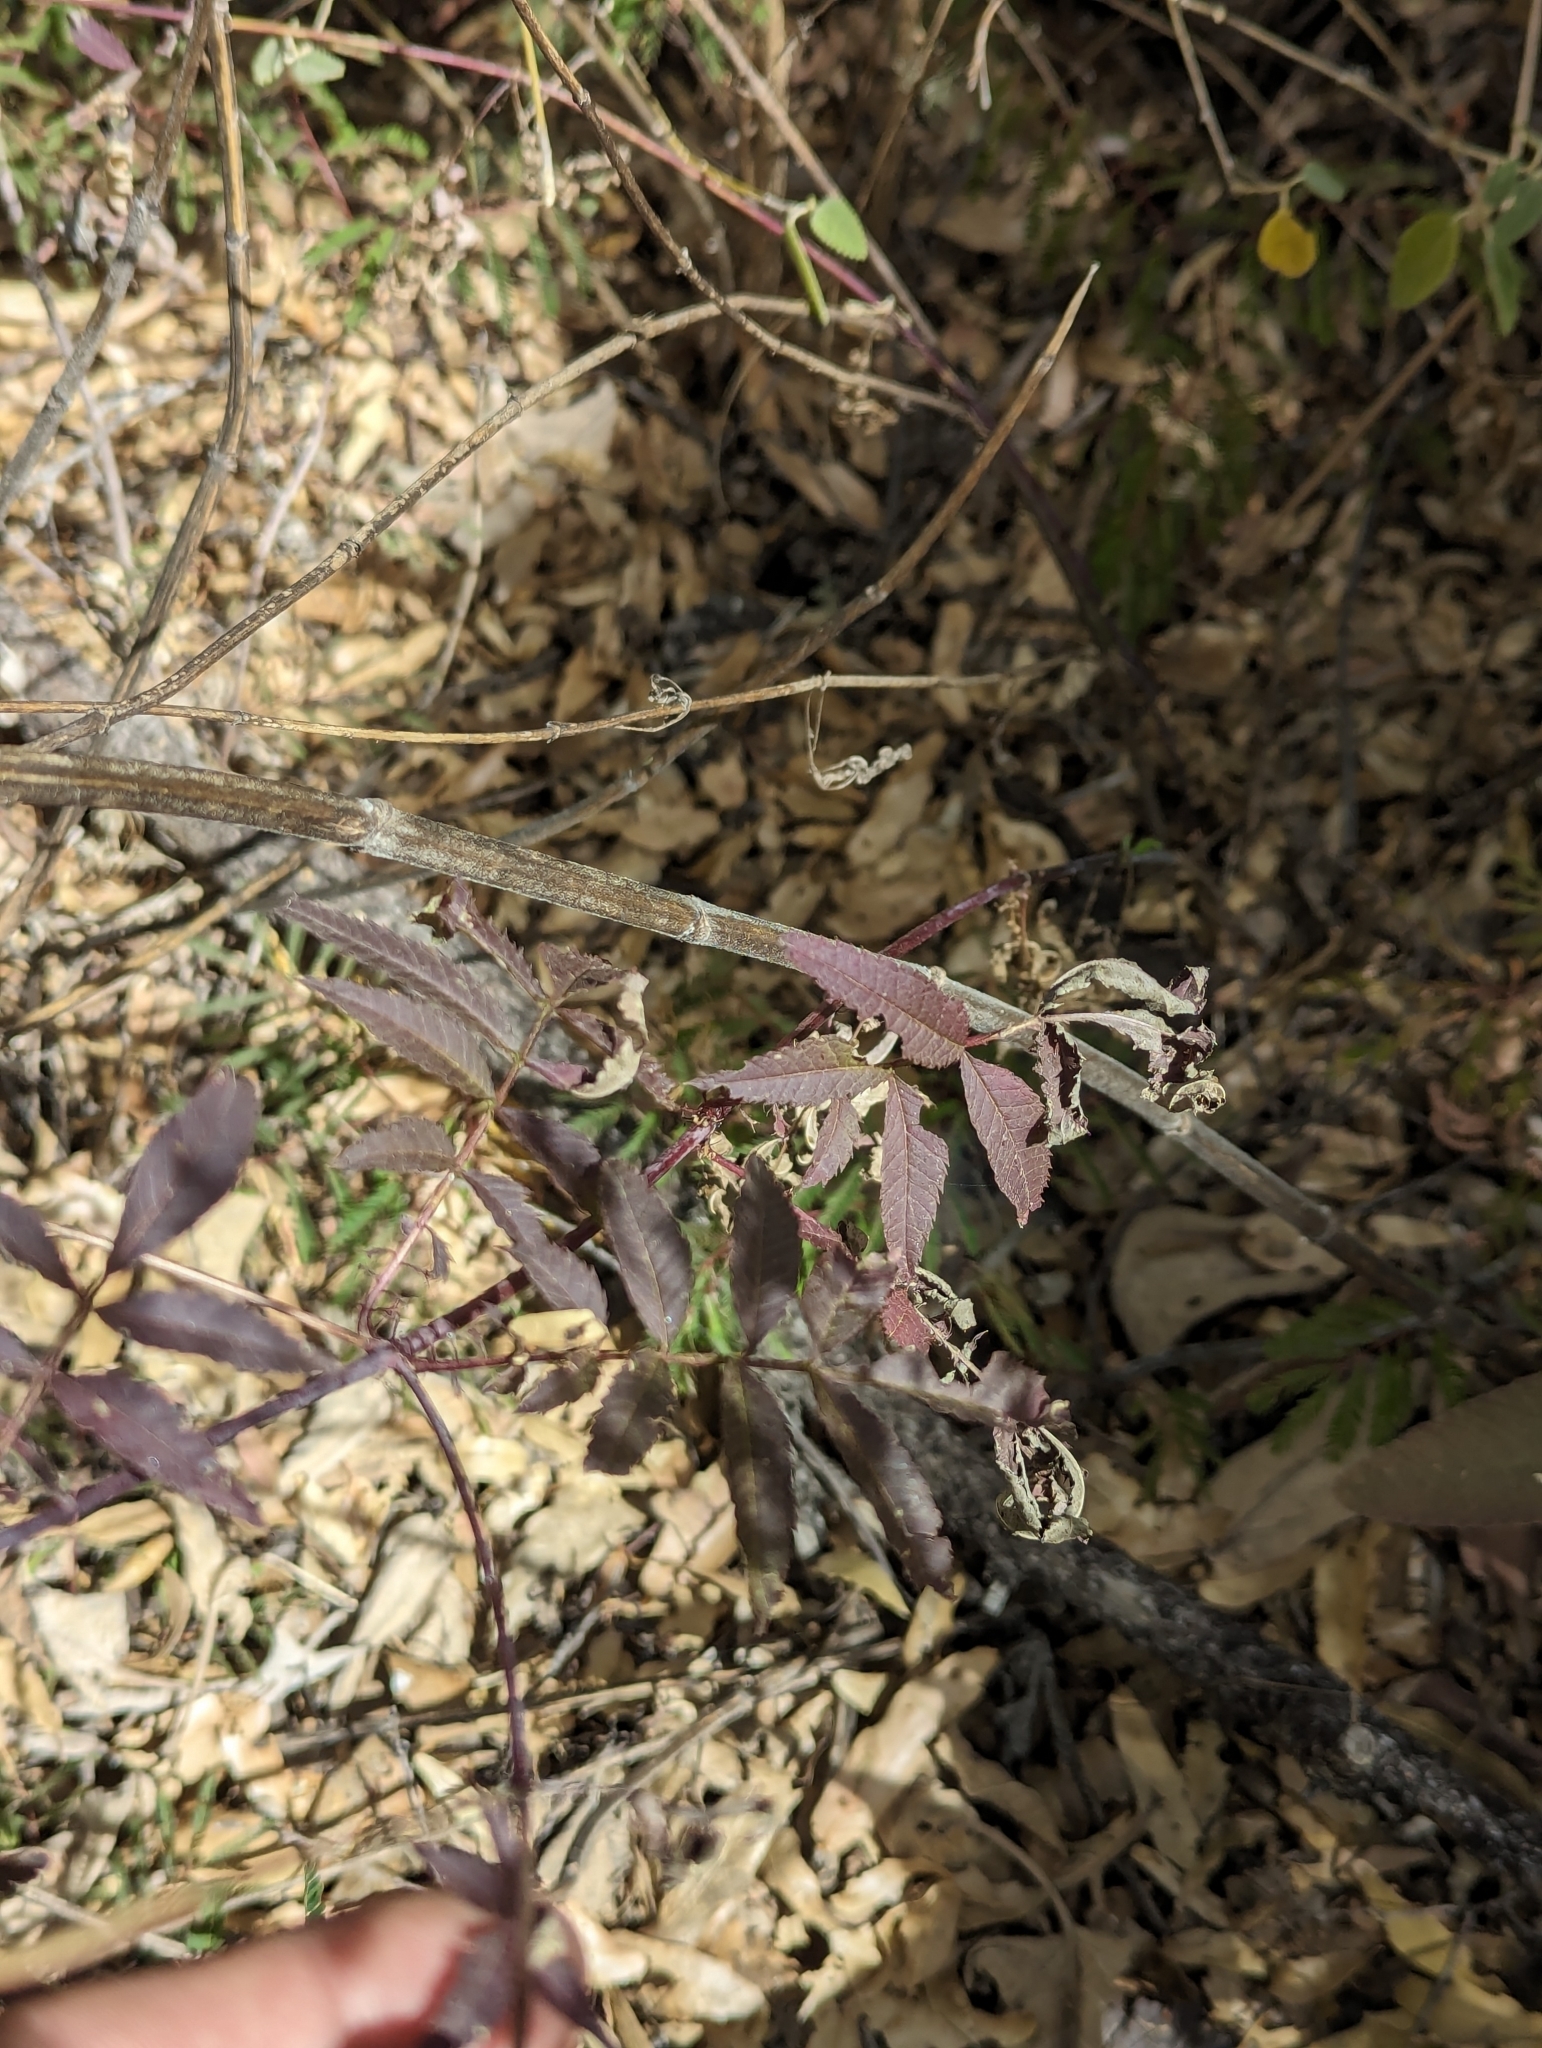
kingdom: Plantae
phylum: Tracheophyta
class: Magnoliopsida
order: Asterales
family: Asteraceae
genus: Tagetes
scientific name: Tagetes lacera
